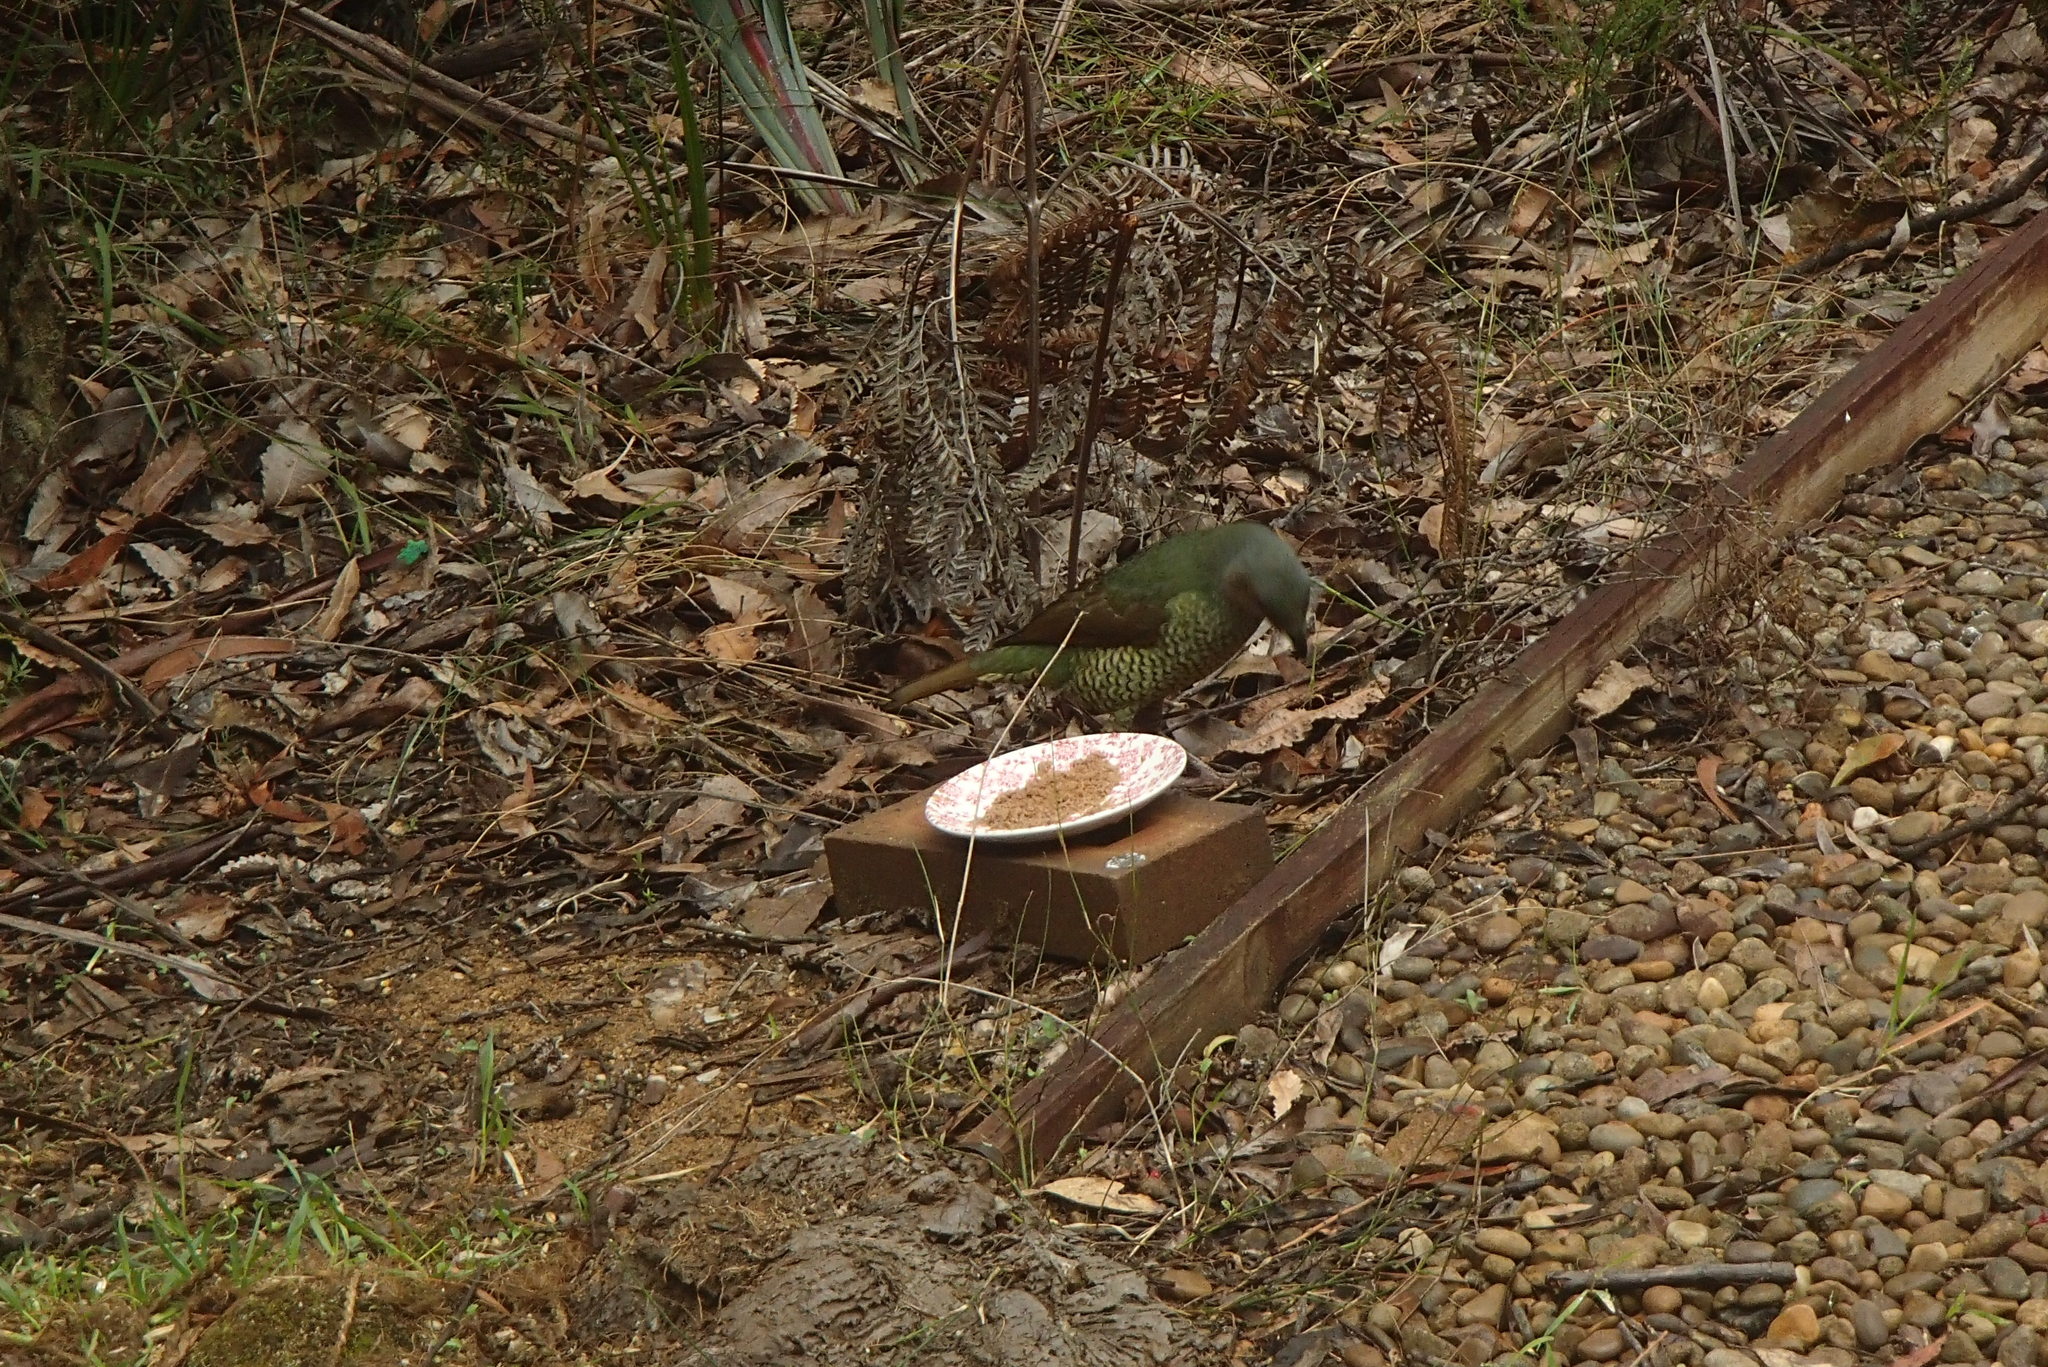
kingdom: Animalia
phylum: Chordata
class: Aves
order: Passeriformes
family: Ptilonorhynchidae
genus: Ptilonorhynchus
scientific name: Ptilonorhynchus violaceus
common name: Satin bowerbird
